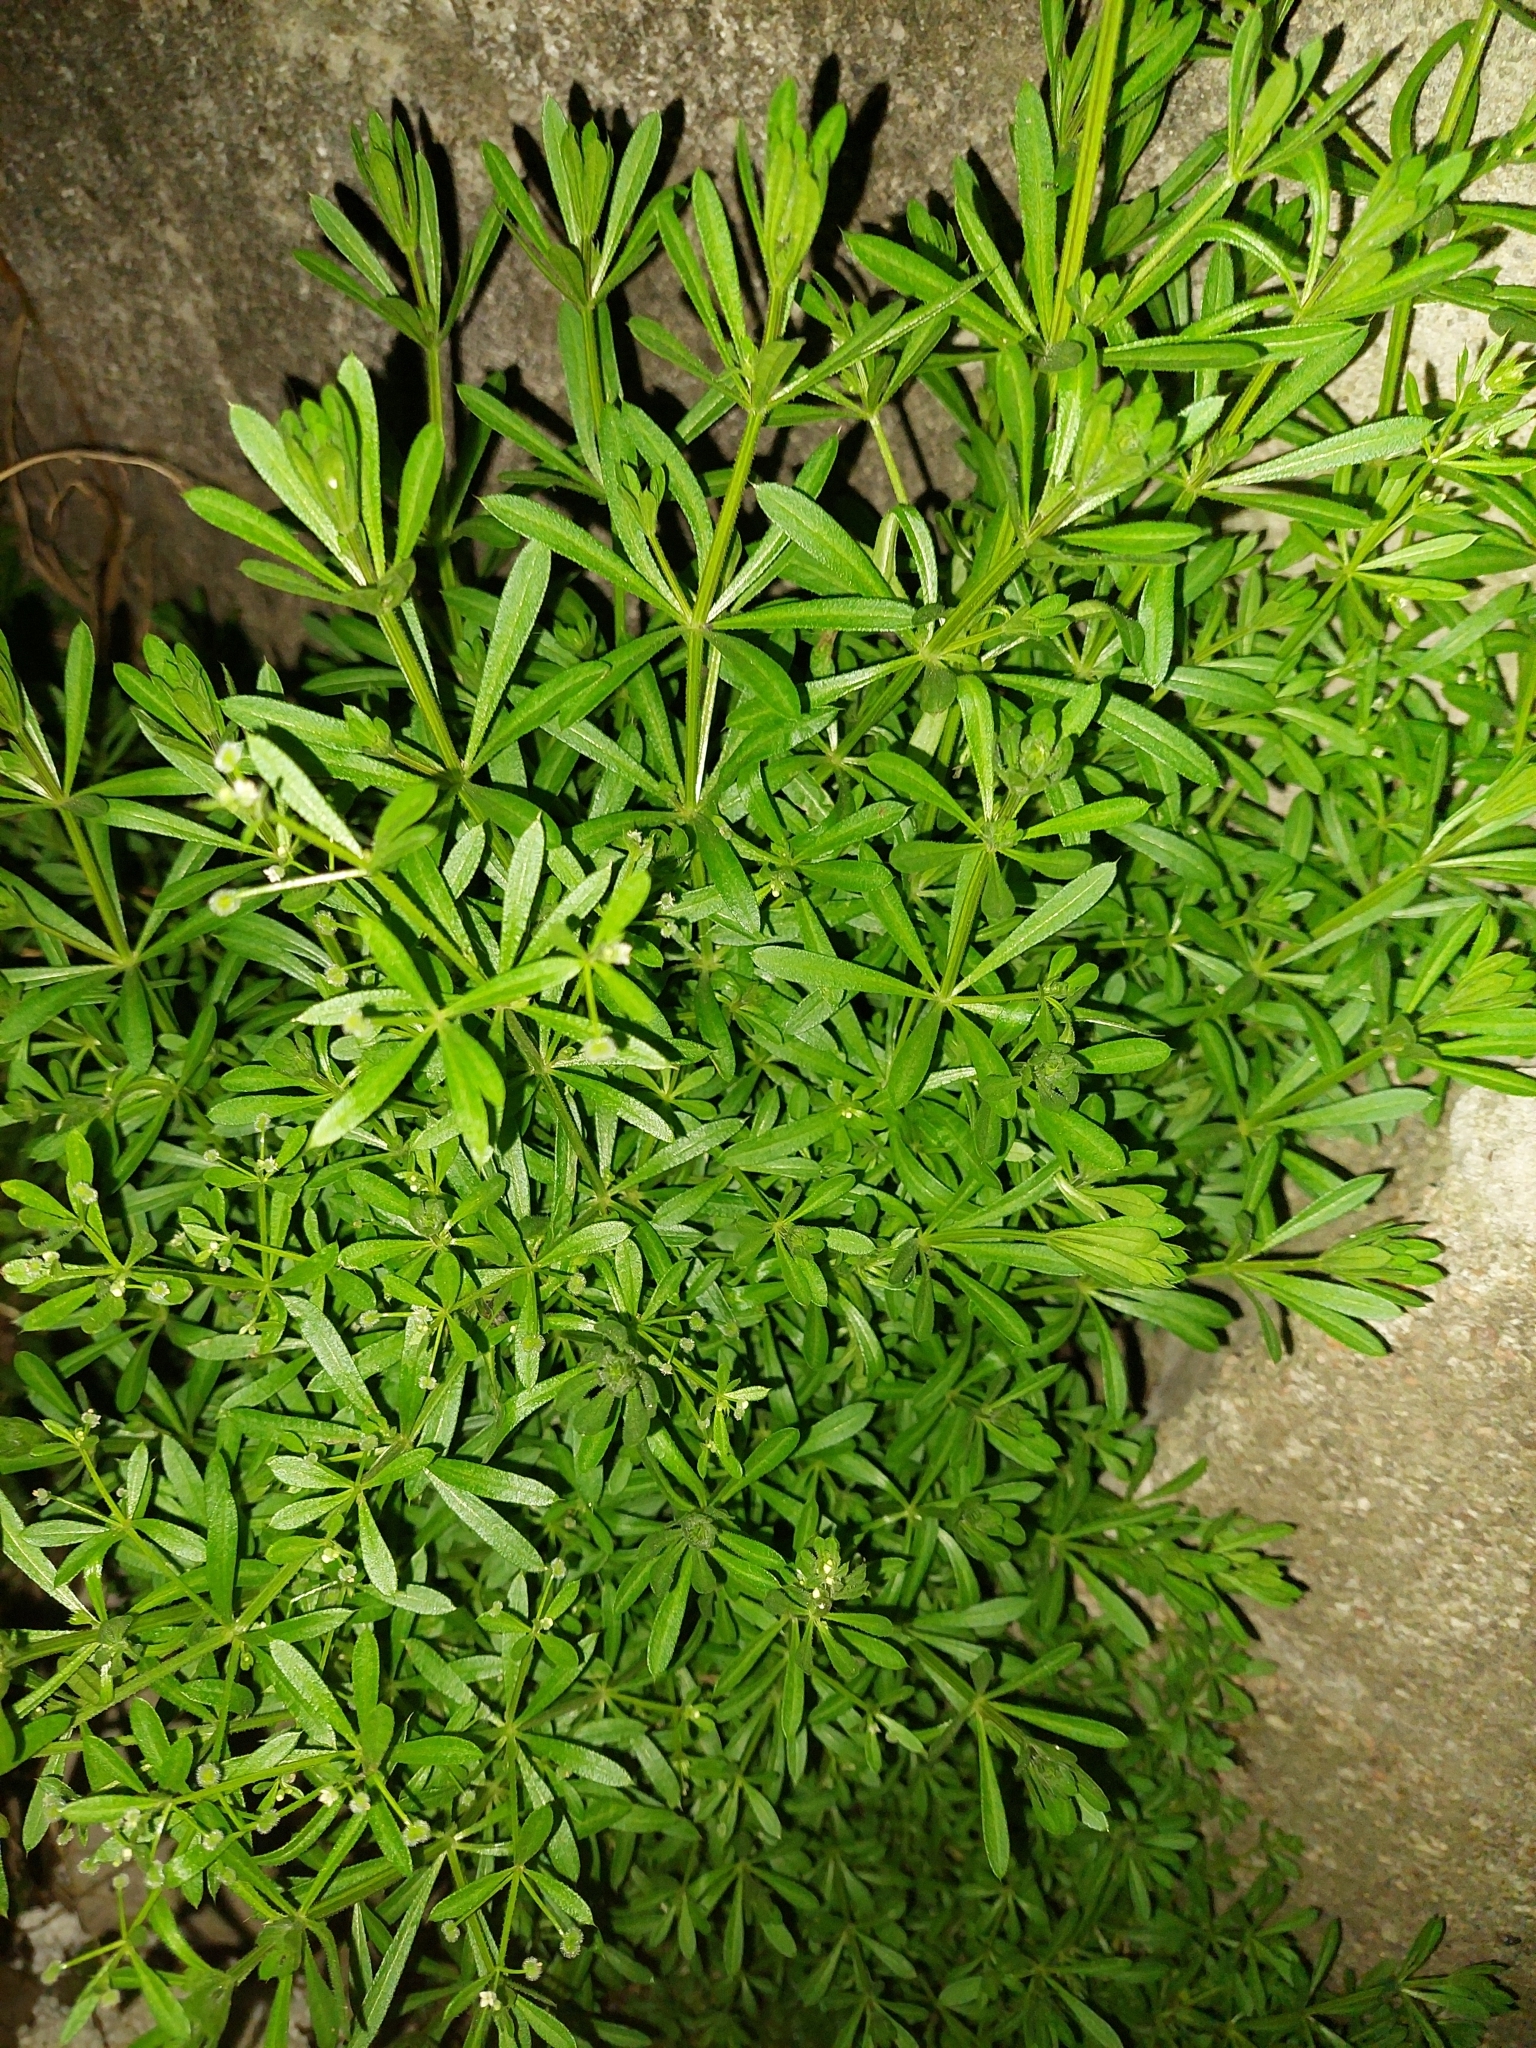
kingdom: Plantae
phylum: Tracheophyta
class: Magnoliopsida
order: Gentianales
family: Rubiaceae
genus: Galium
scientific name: Galium aparine
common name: Cleavers
